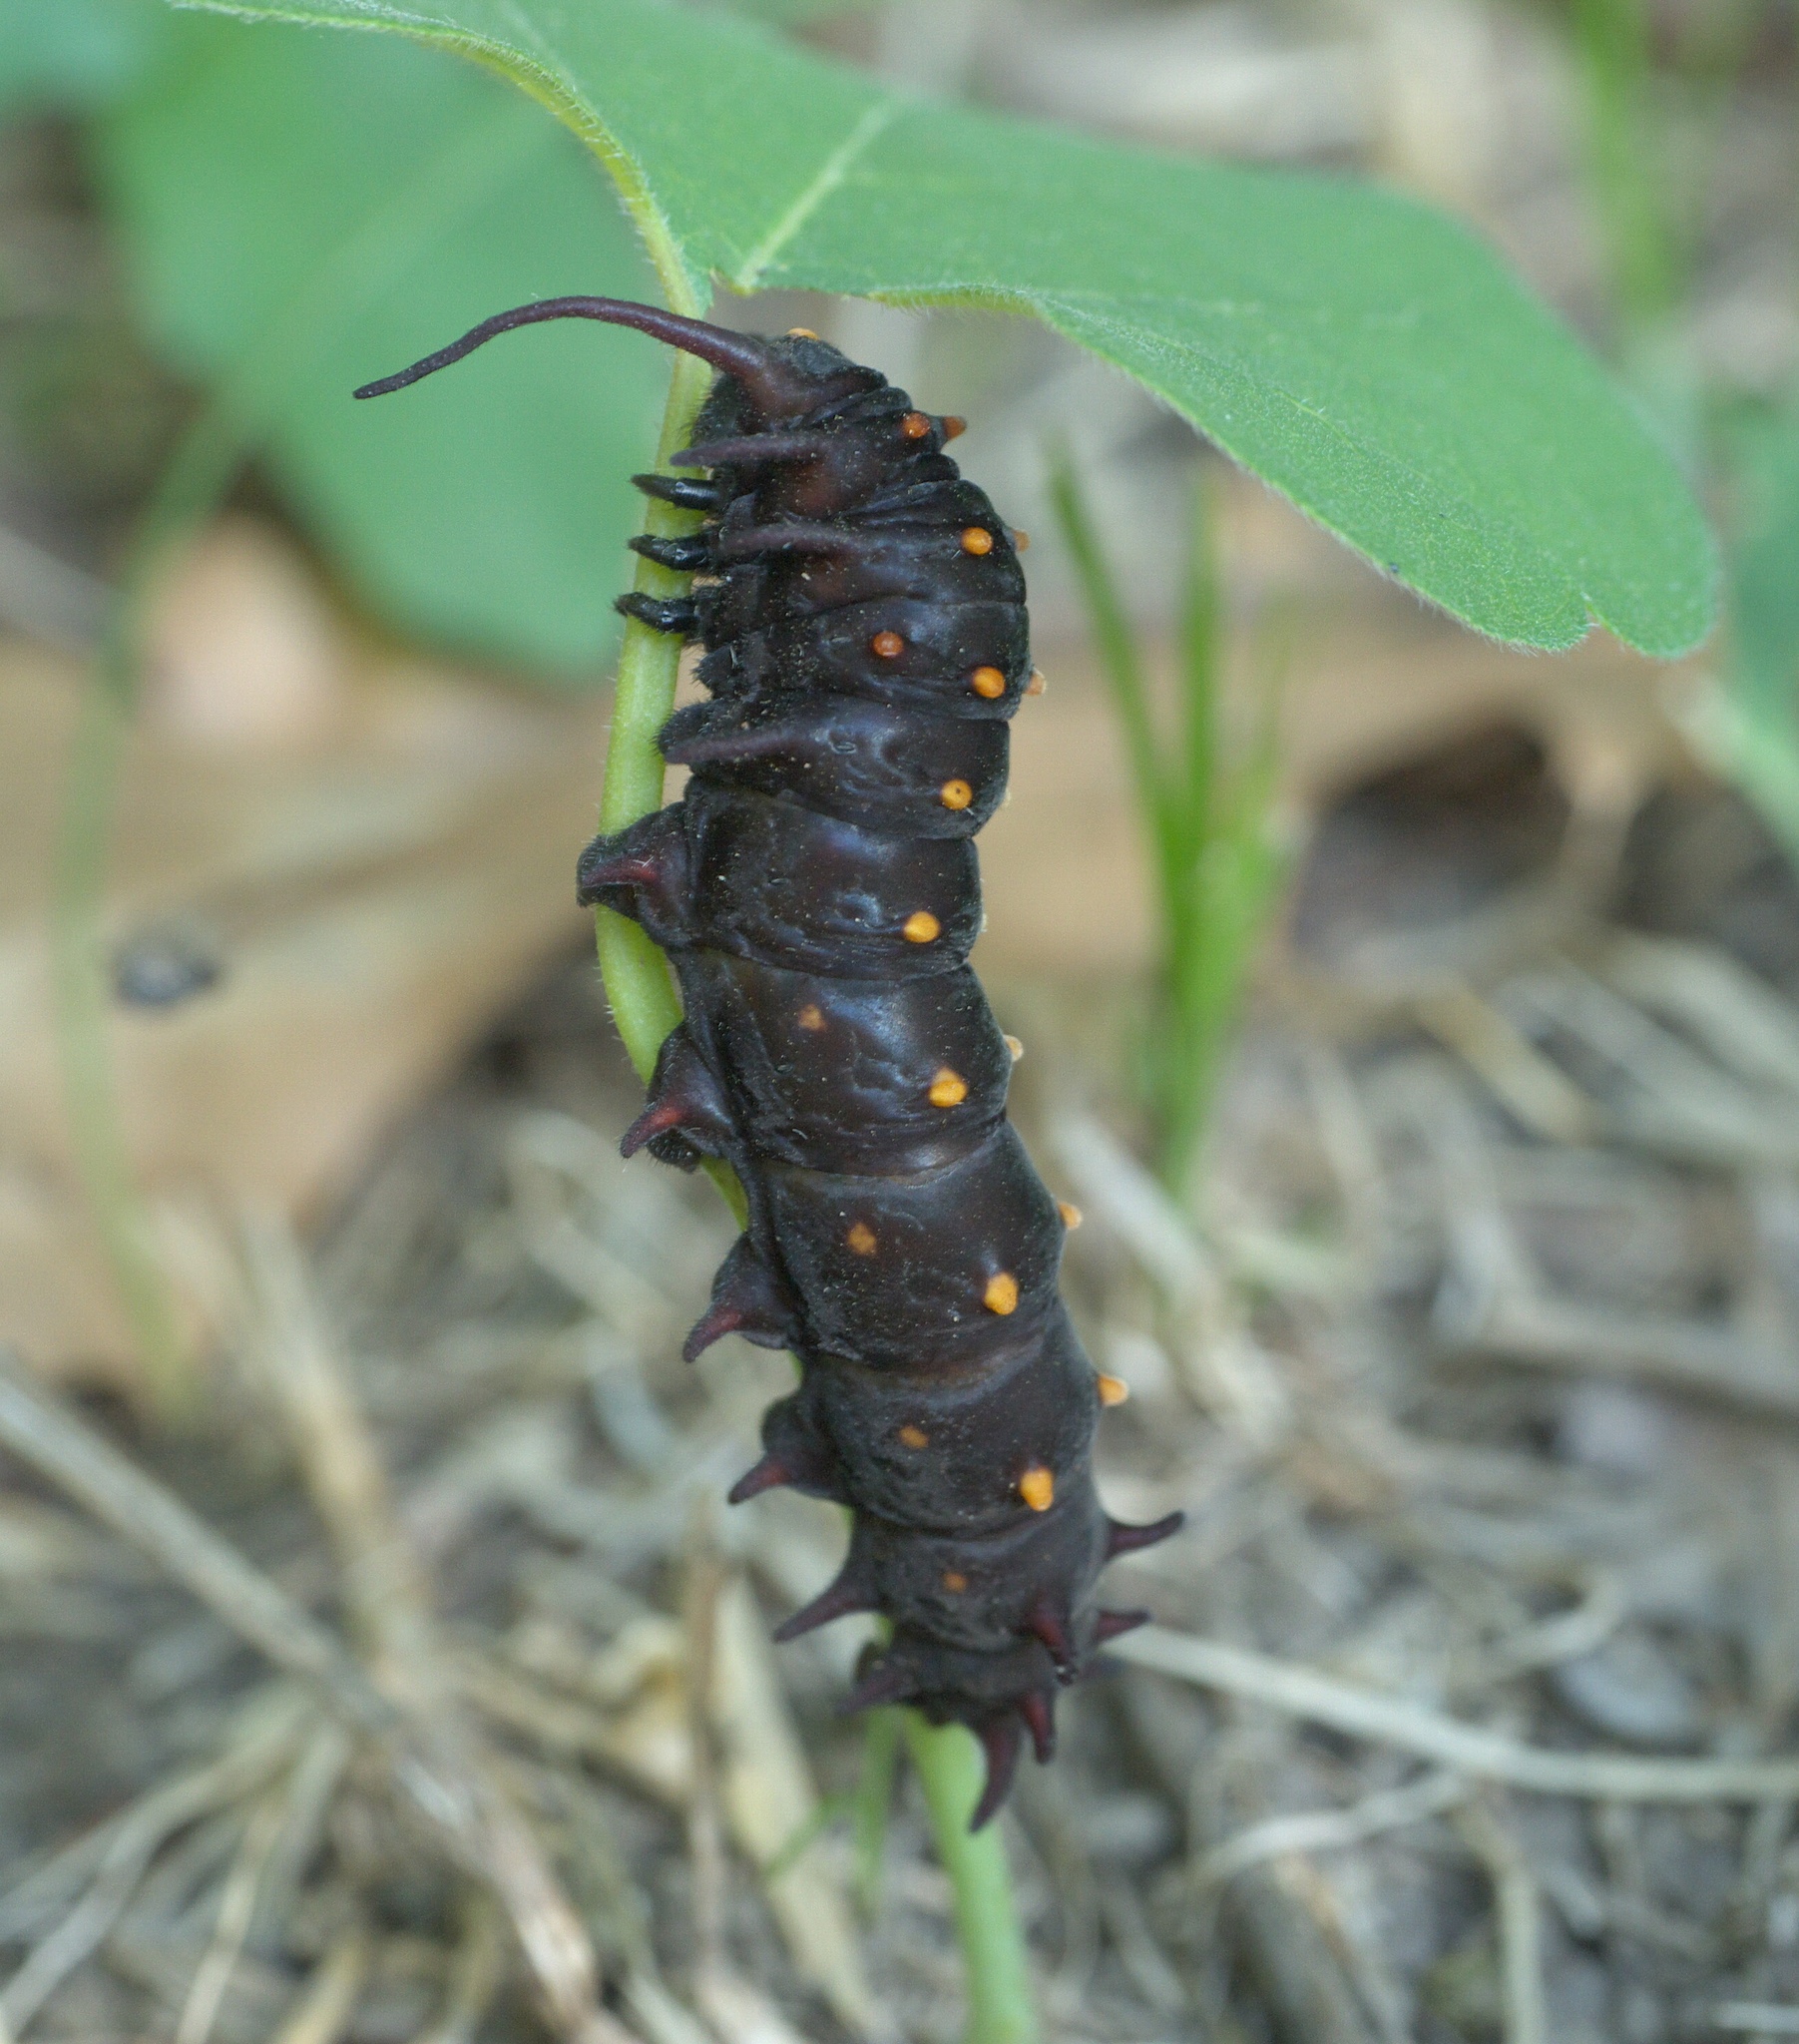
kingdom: Animalia
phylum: Arthropoda
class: Insecta
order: Lepidoptera
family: Papilionidae
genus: Battus
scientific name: Battus philenor
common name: Pipevine swallowtail
